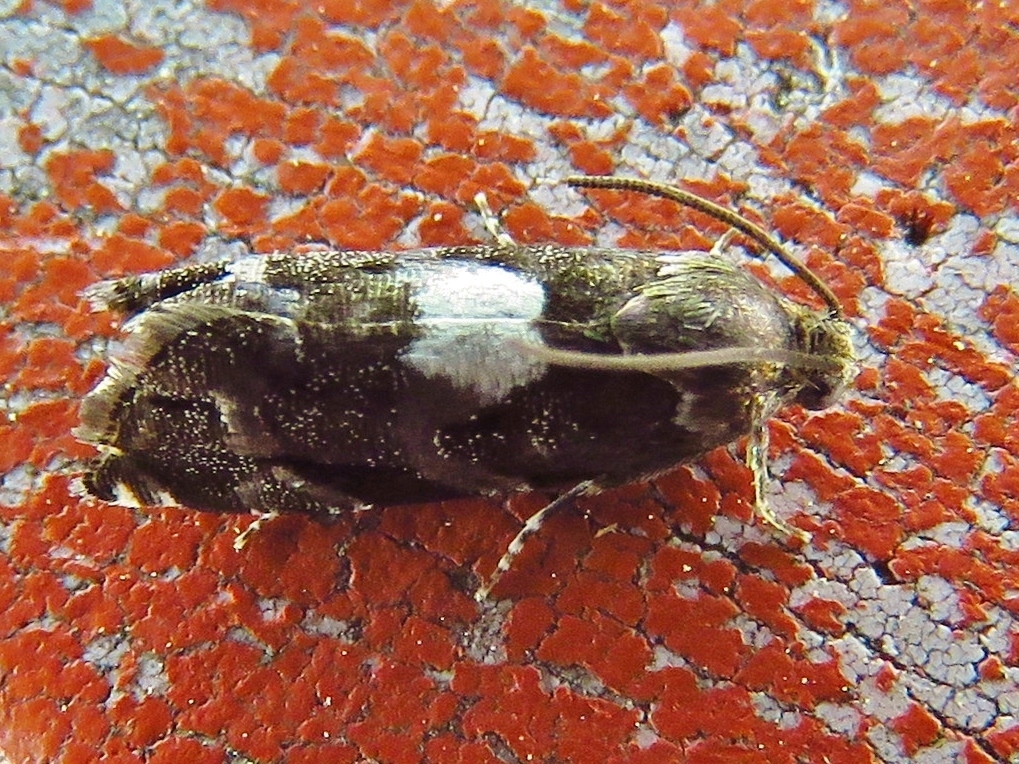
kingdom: Animalia
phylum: Arthropoda
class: Insecta
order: Lepidoptera
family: Tortricidae
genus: Cydia
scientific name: Cydia albimaculana
